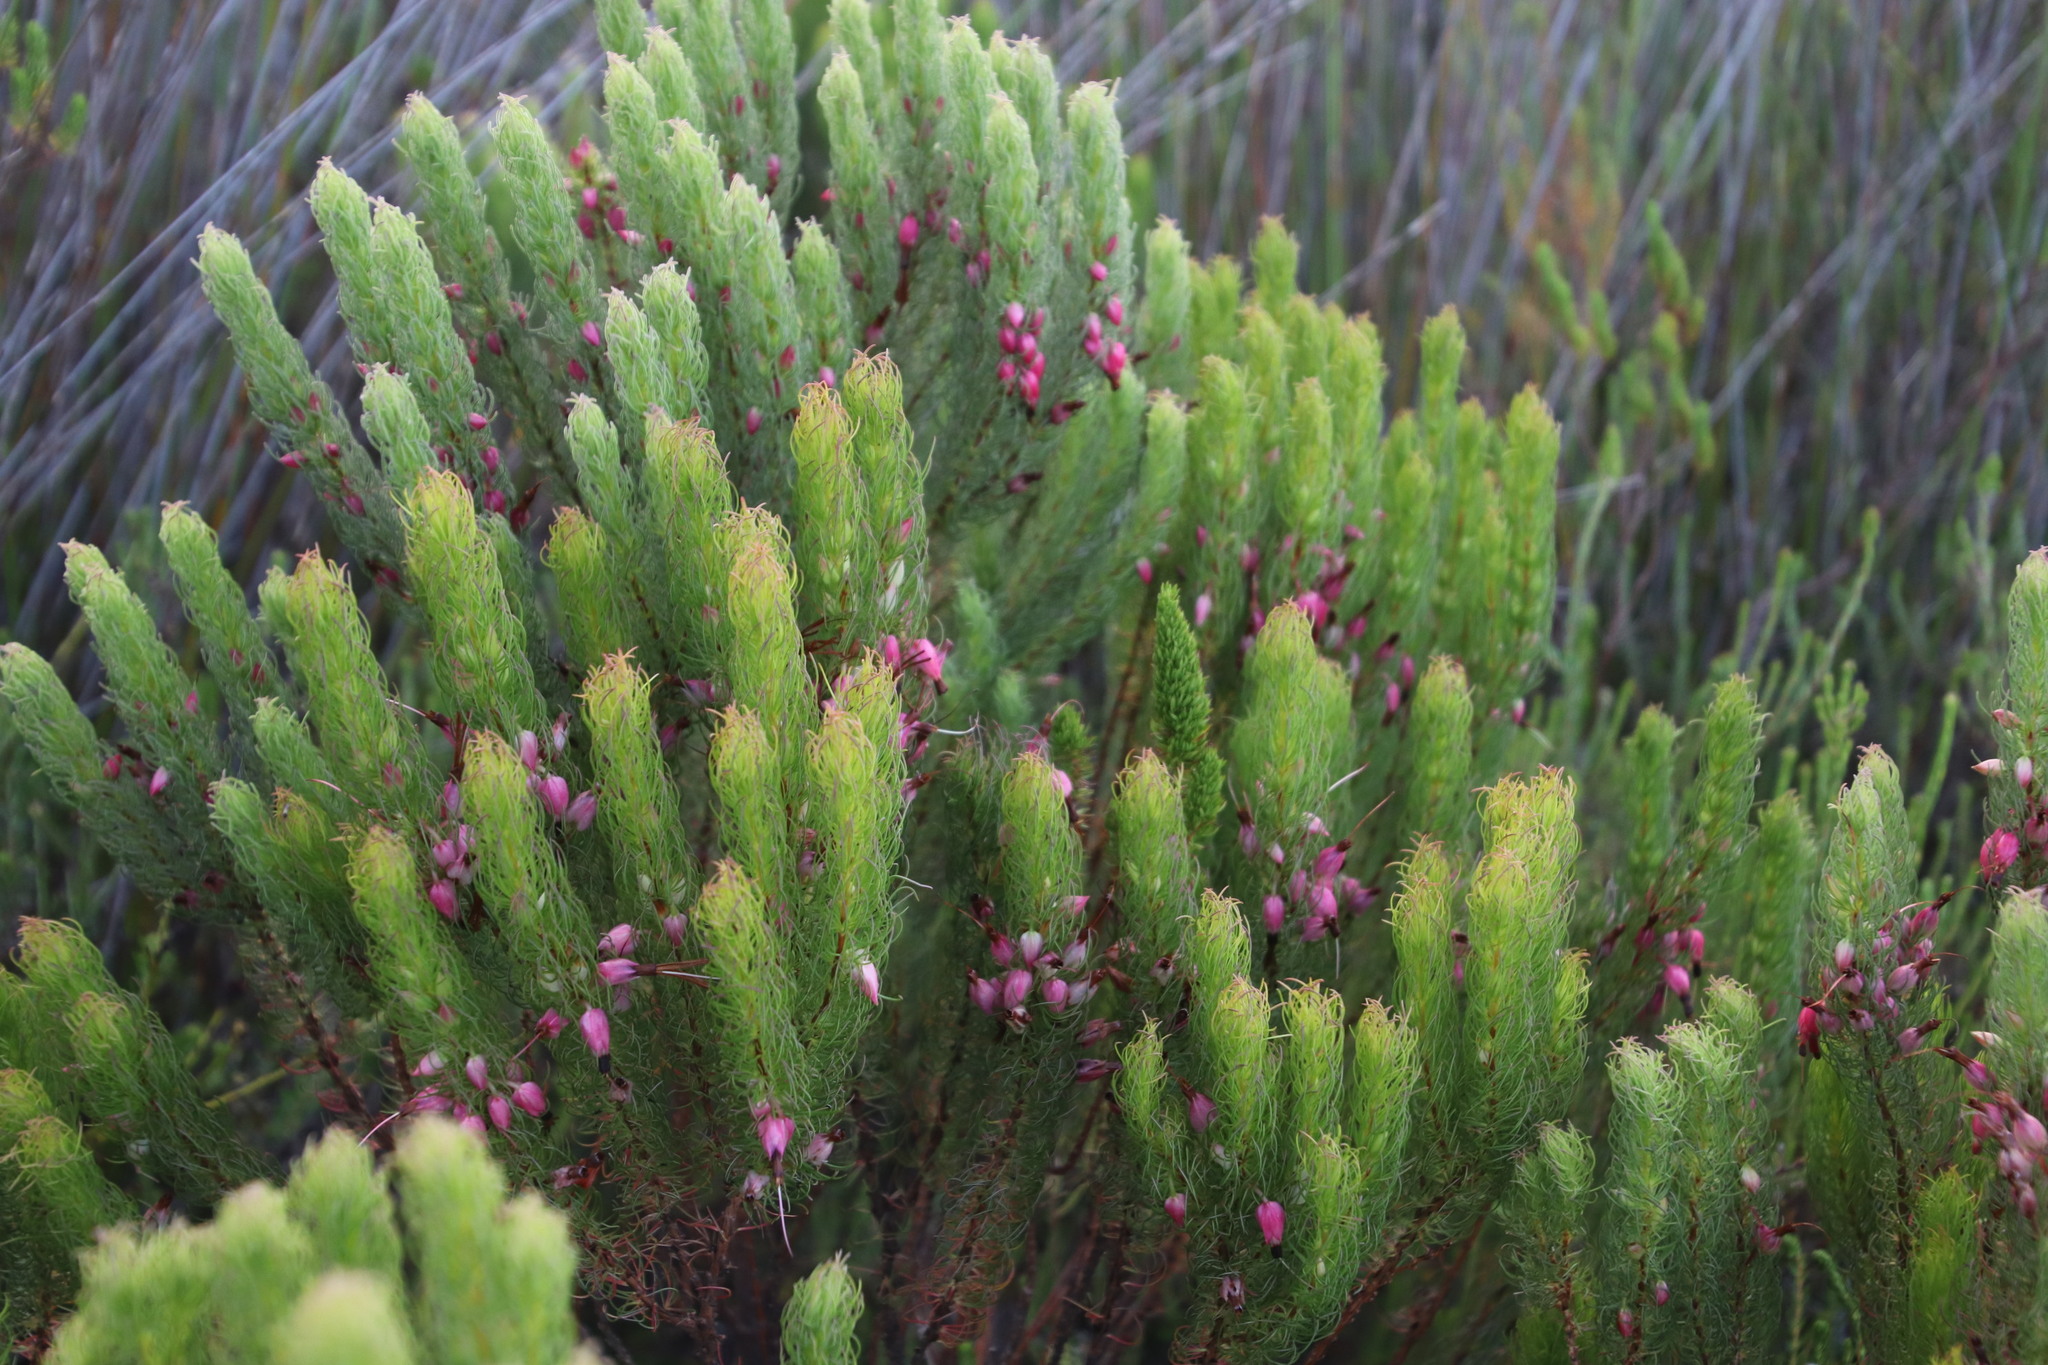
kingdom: Plantae
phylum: Tracheophyta
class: Magnoliopsida
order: Ericales
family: Ericaceae
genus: Erica
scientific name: Erica plukenetii
